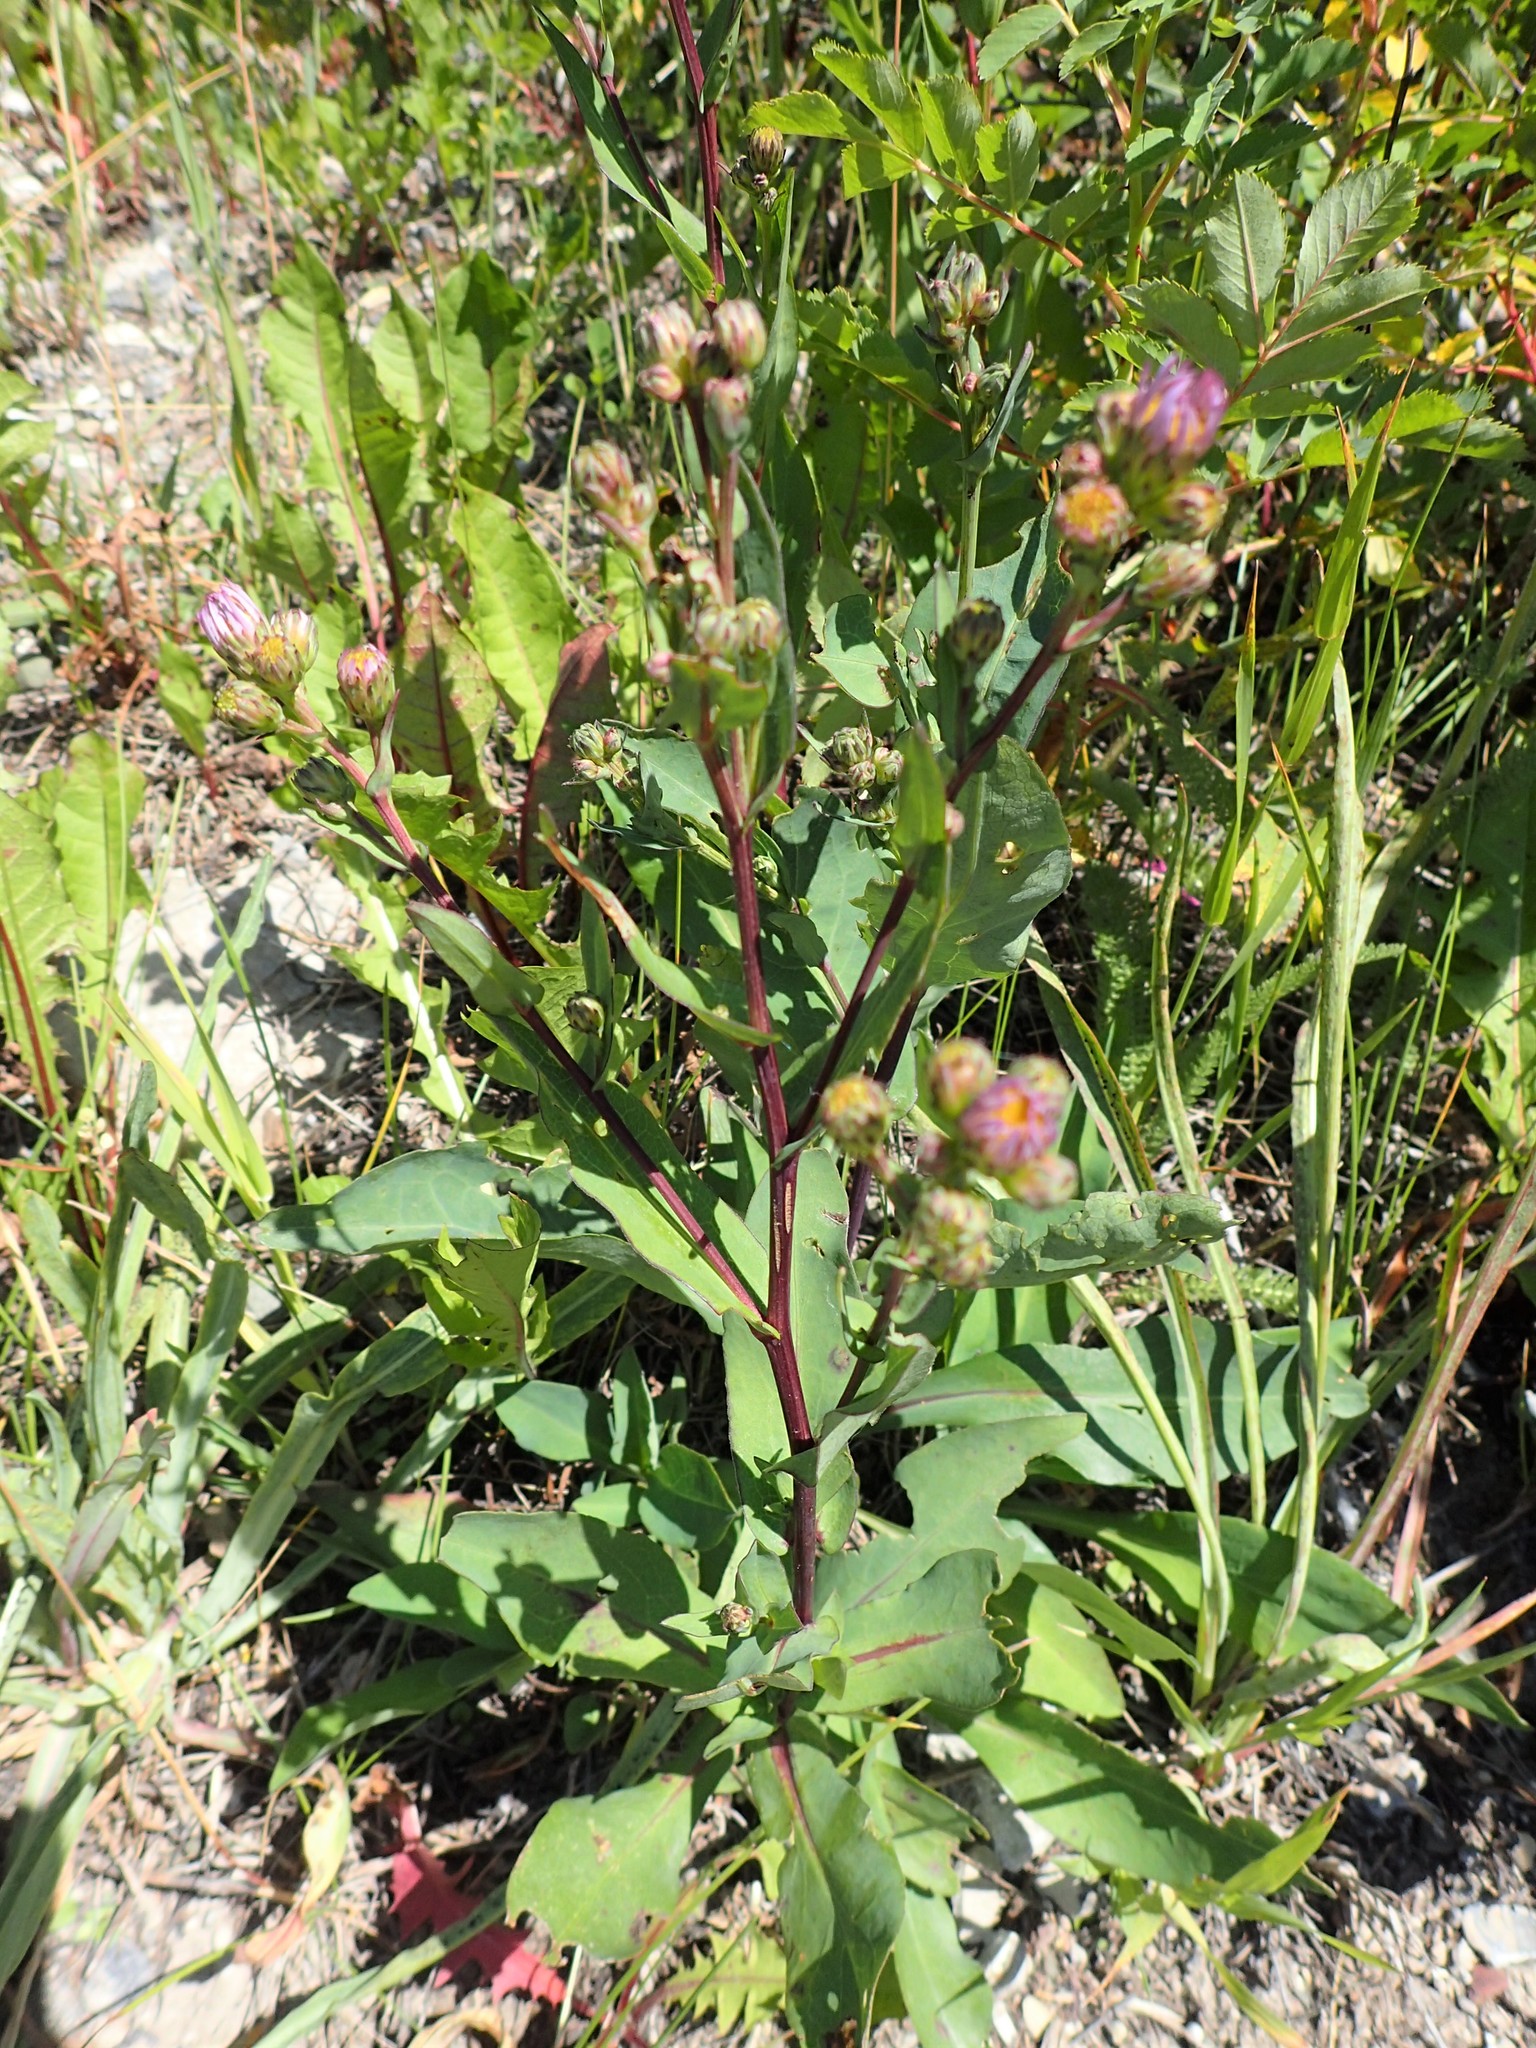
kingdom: Plantae
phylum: Tracheophyta
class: Magnoliopsida
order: Asterales
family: Asteraceae
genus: Symphyotrichum
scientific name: Symphyotrichum laeve
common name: Glaucous aster
